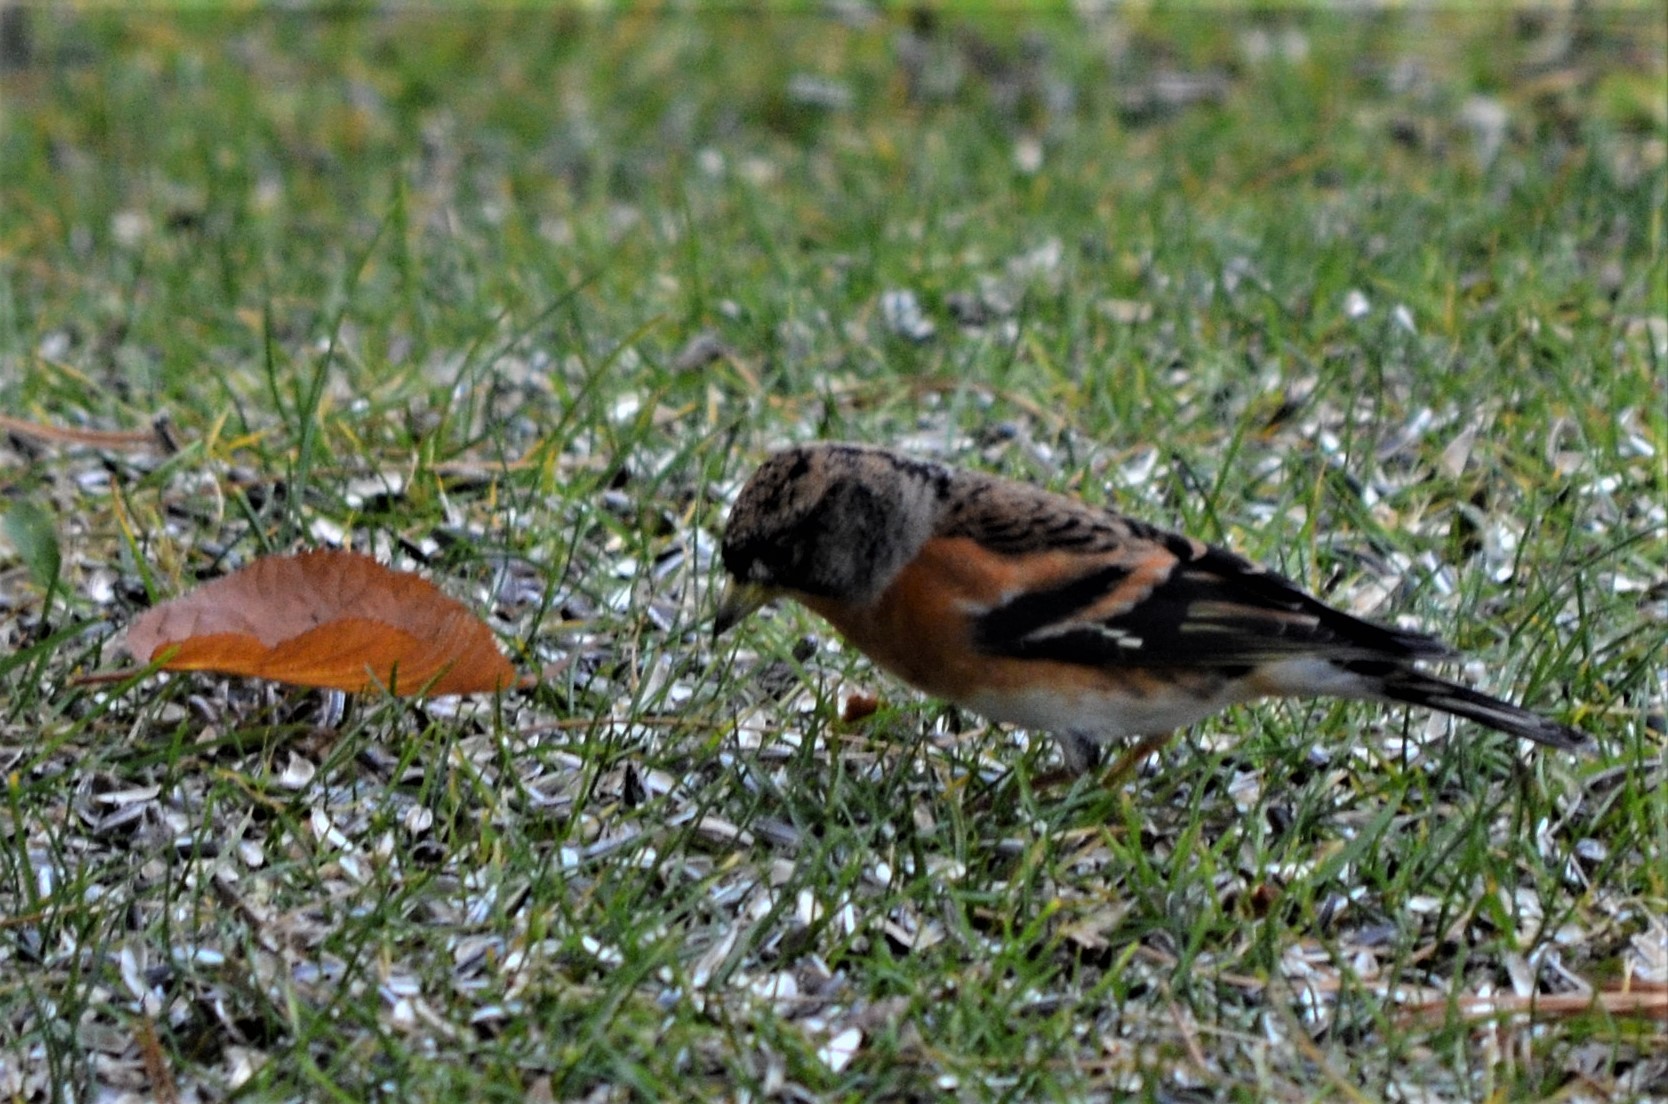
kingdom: Animalia
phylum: Chordata
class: Aves
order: Passeriformes
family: Fringillidae
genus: Fringilla
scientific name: Fringilla montifringilla
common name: Brambling
